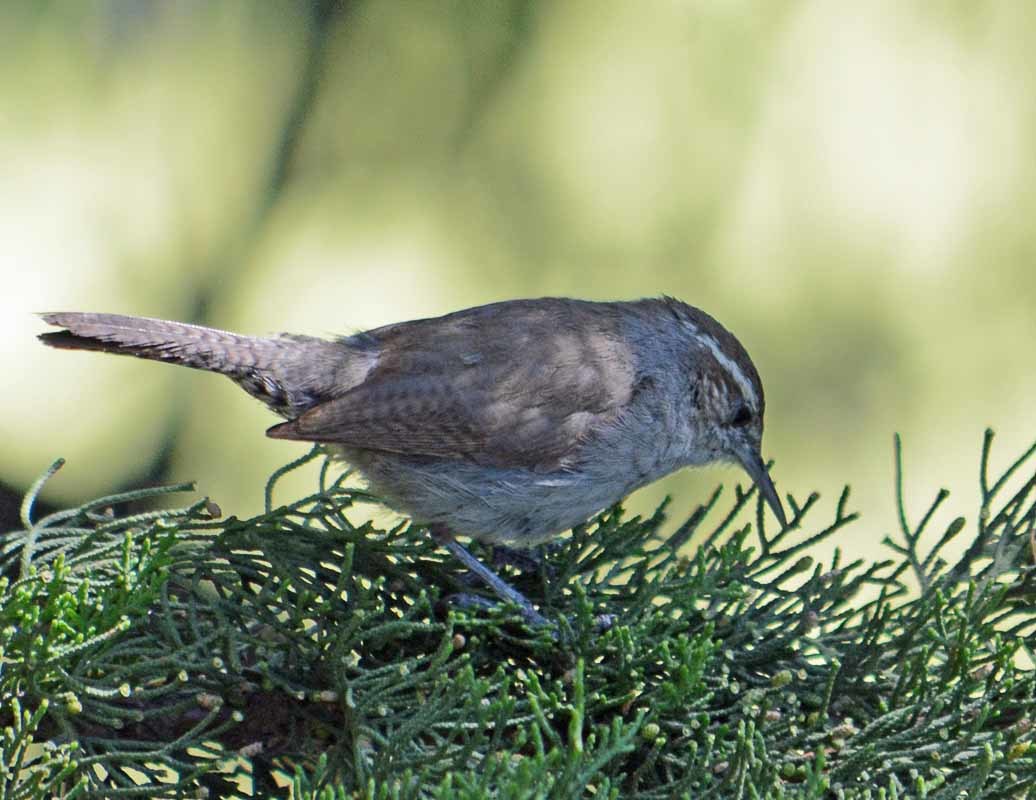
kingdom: Animalia
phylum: Chordata
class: Aves
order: Passeriformes
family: Troglodytidae
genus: Thryomanes
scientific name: Thryomanes bewickii
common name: Bewick's wren
